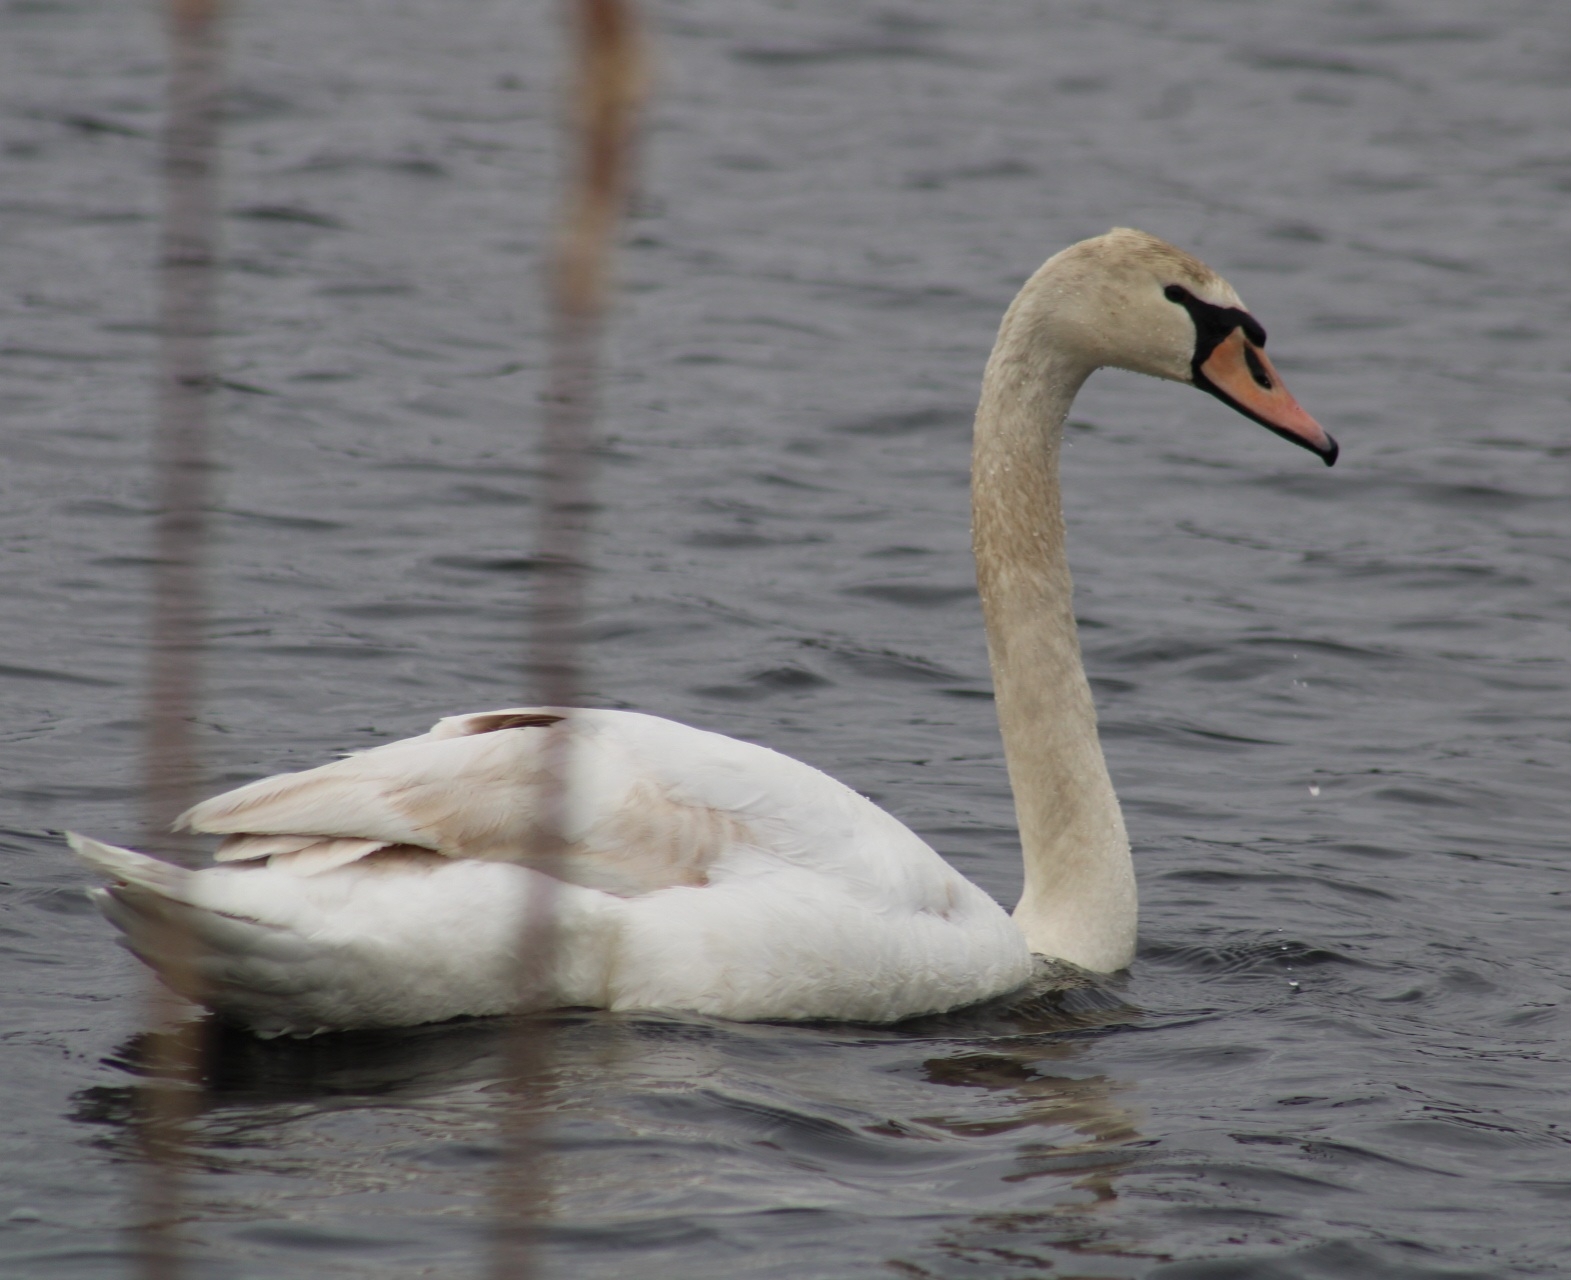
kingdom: Animalia
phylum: Chordata
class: Aves
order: Anseriformes
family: Anatidae
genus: Cygnus
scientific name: Cygnus olor
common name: Mute swan
